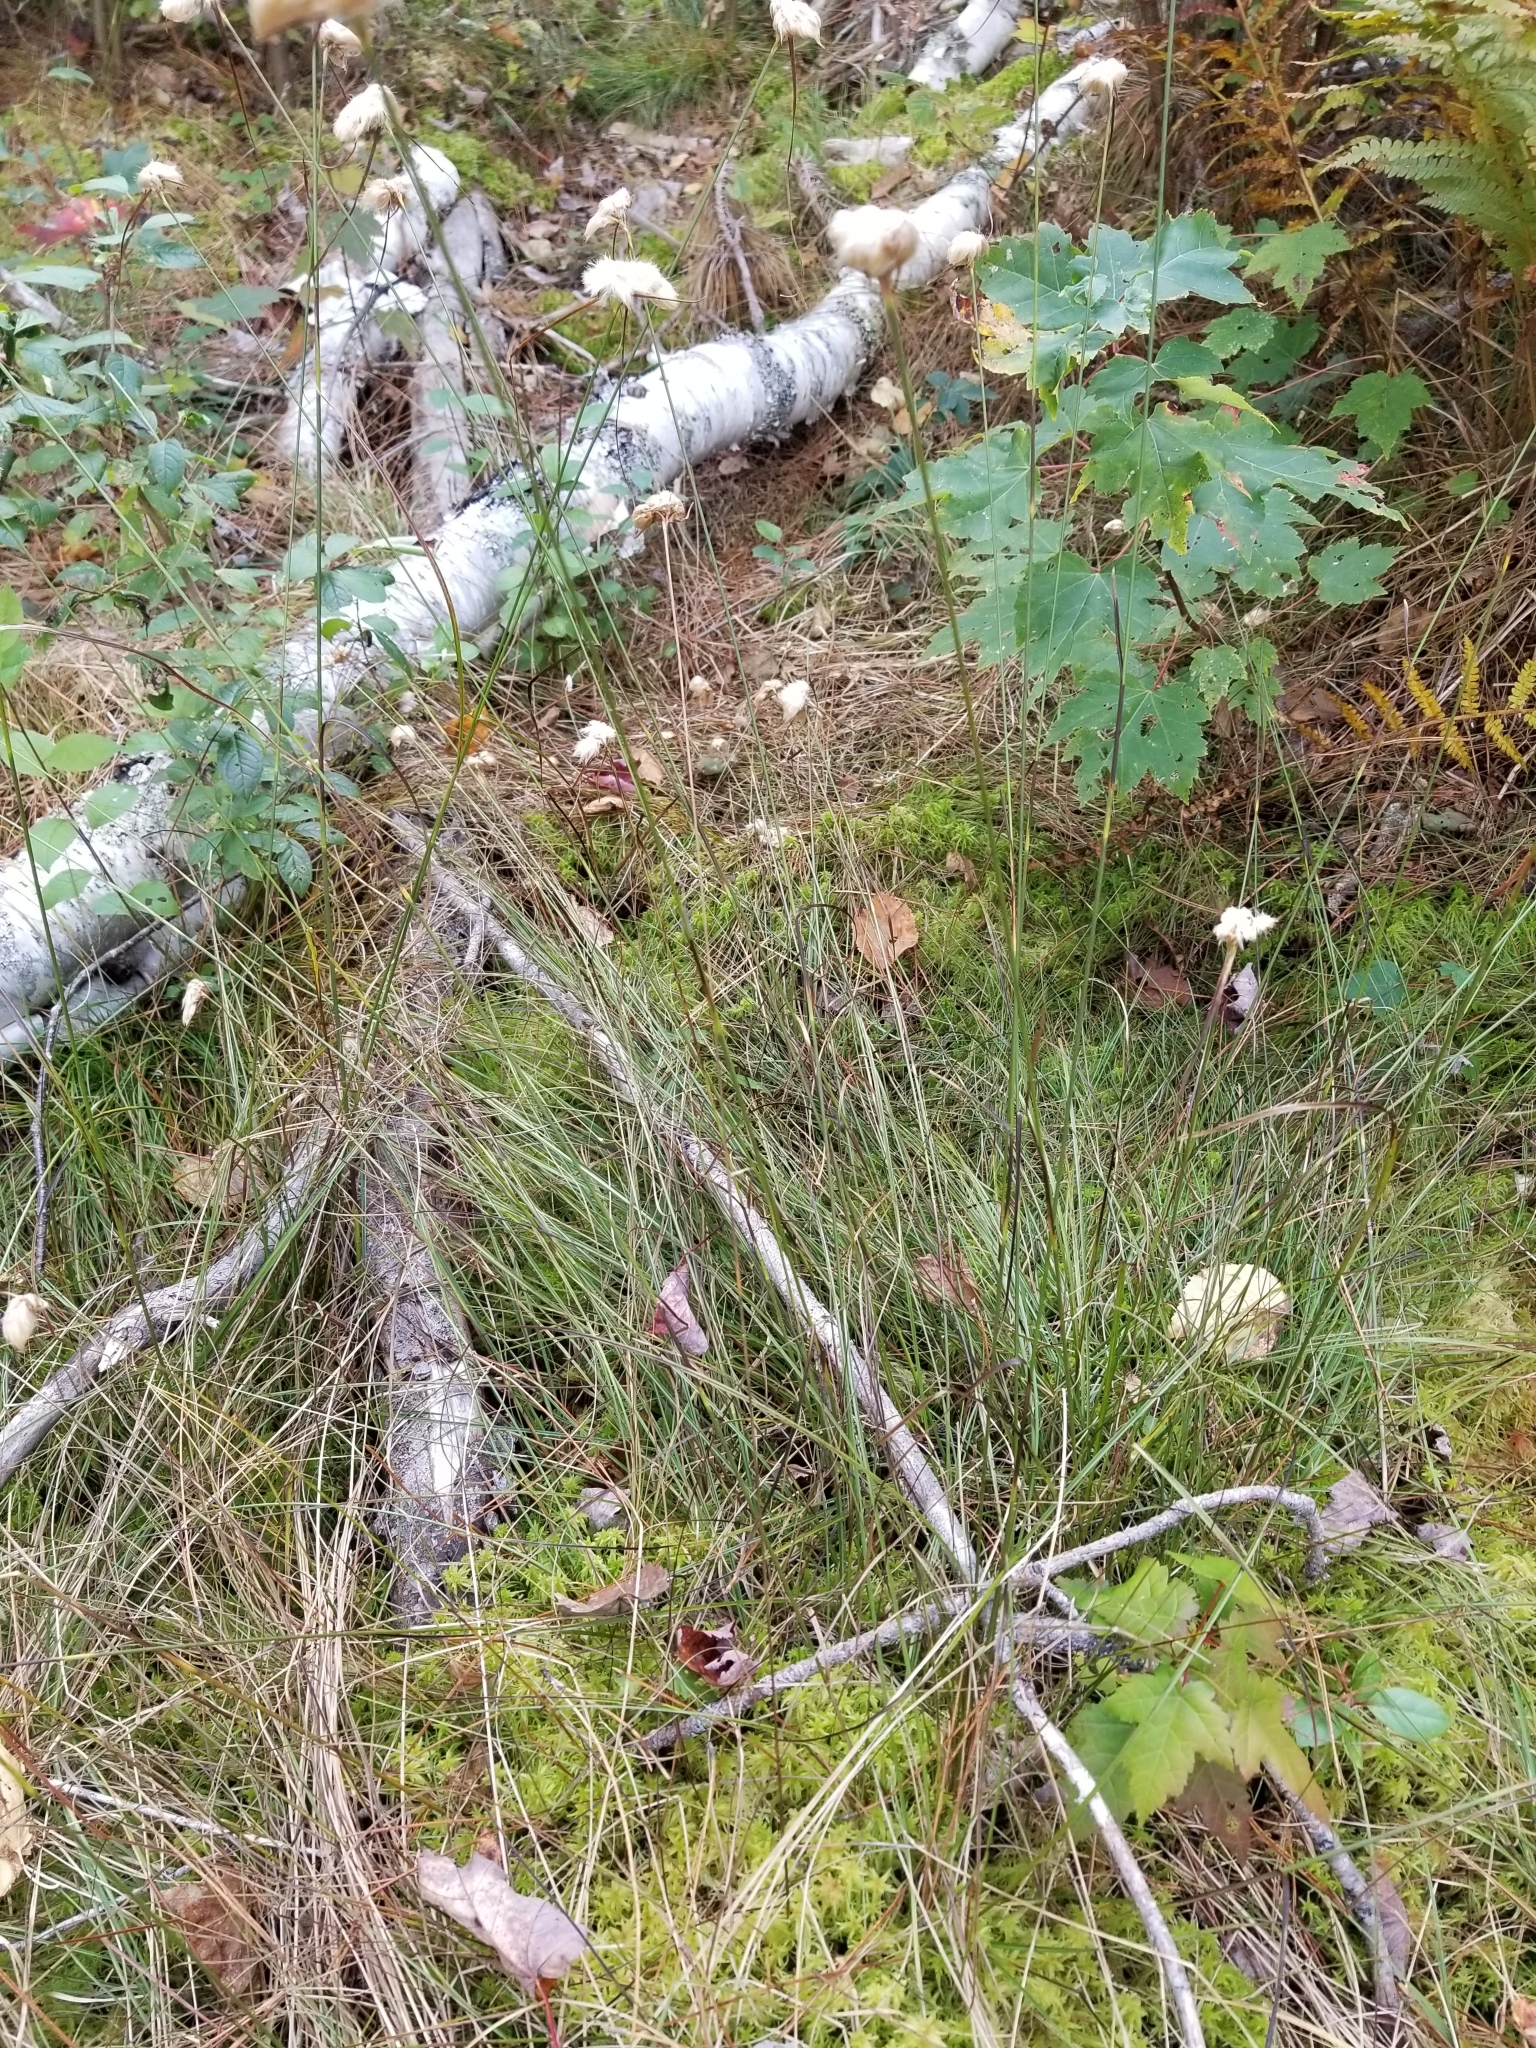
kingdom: Plantae
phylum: Tracheophyta
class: Magnoliopsida
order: Sapindales
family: Sapindaceae
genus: Acer
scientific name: Acer rubrum
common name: Red maple
